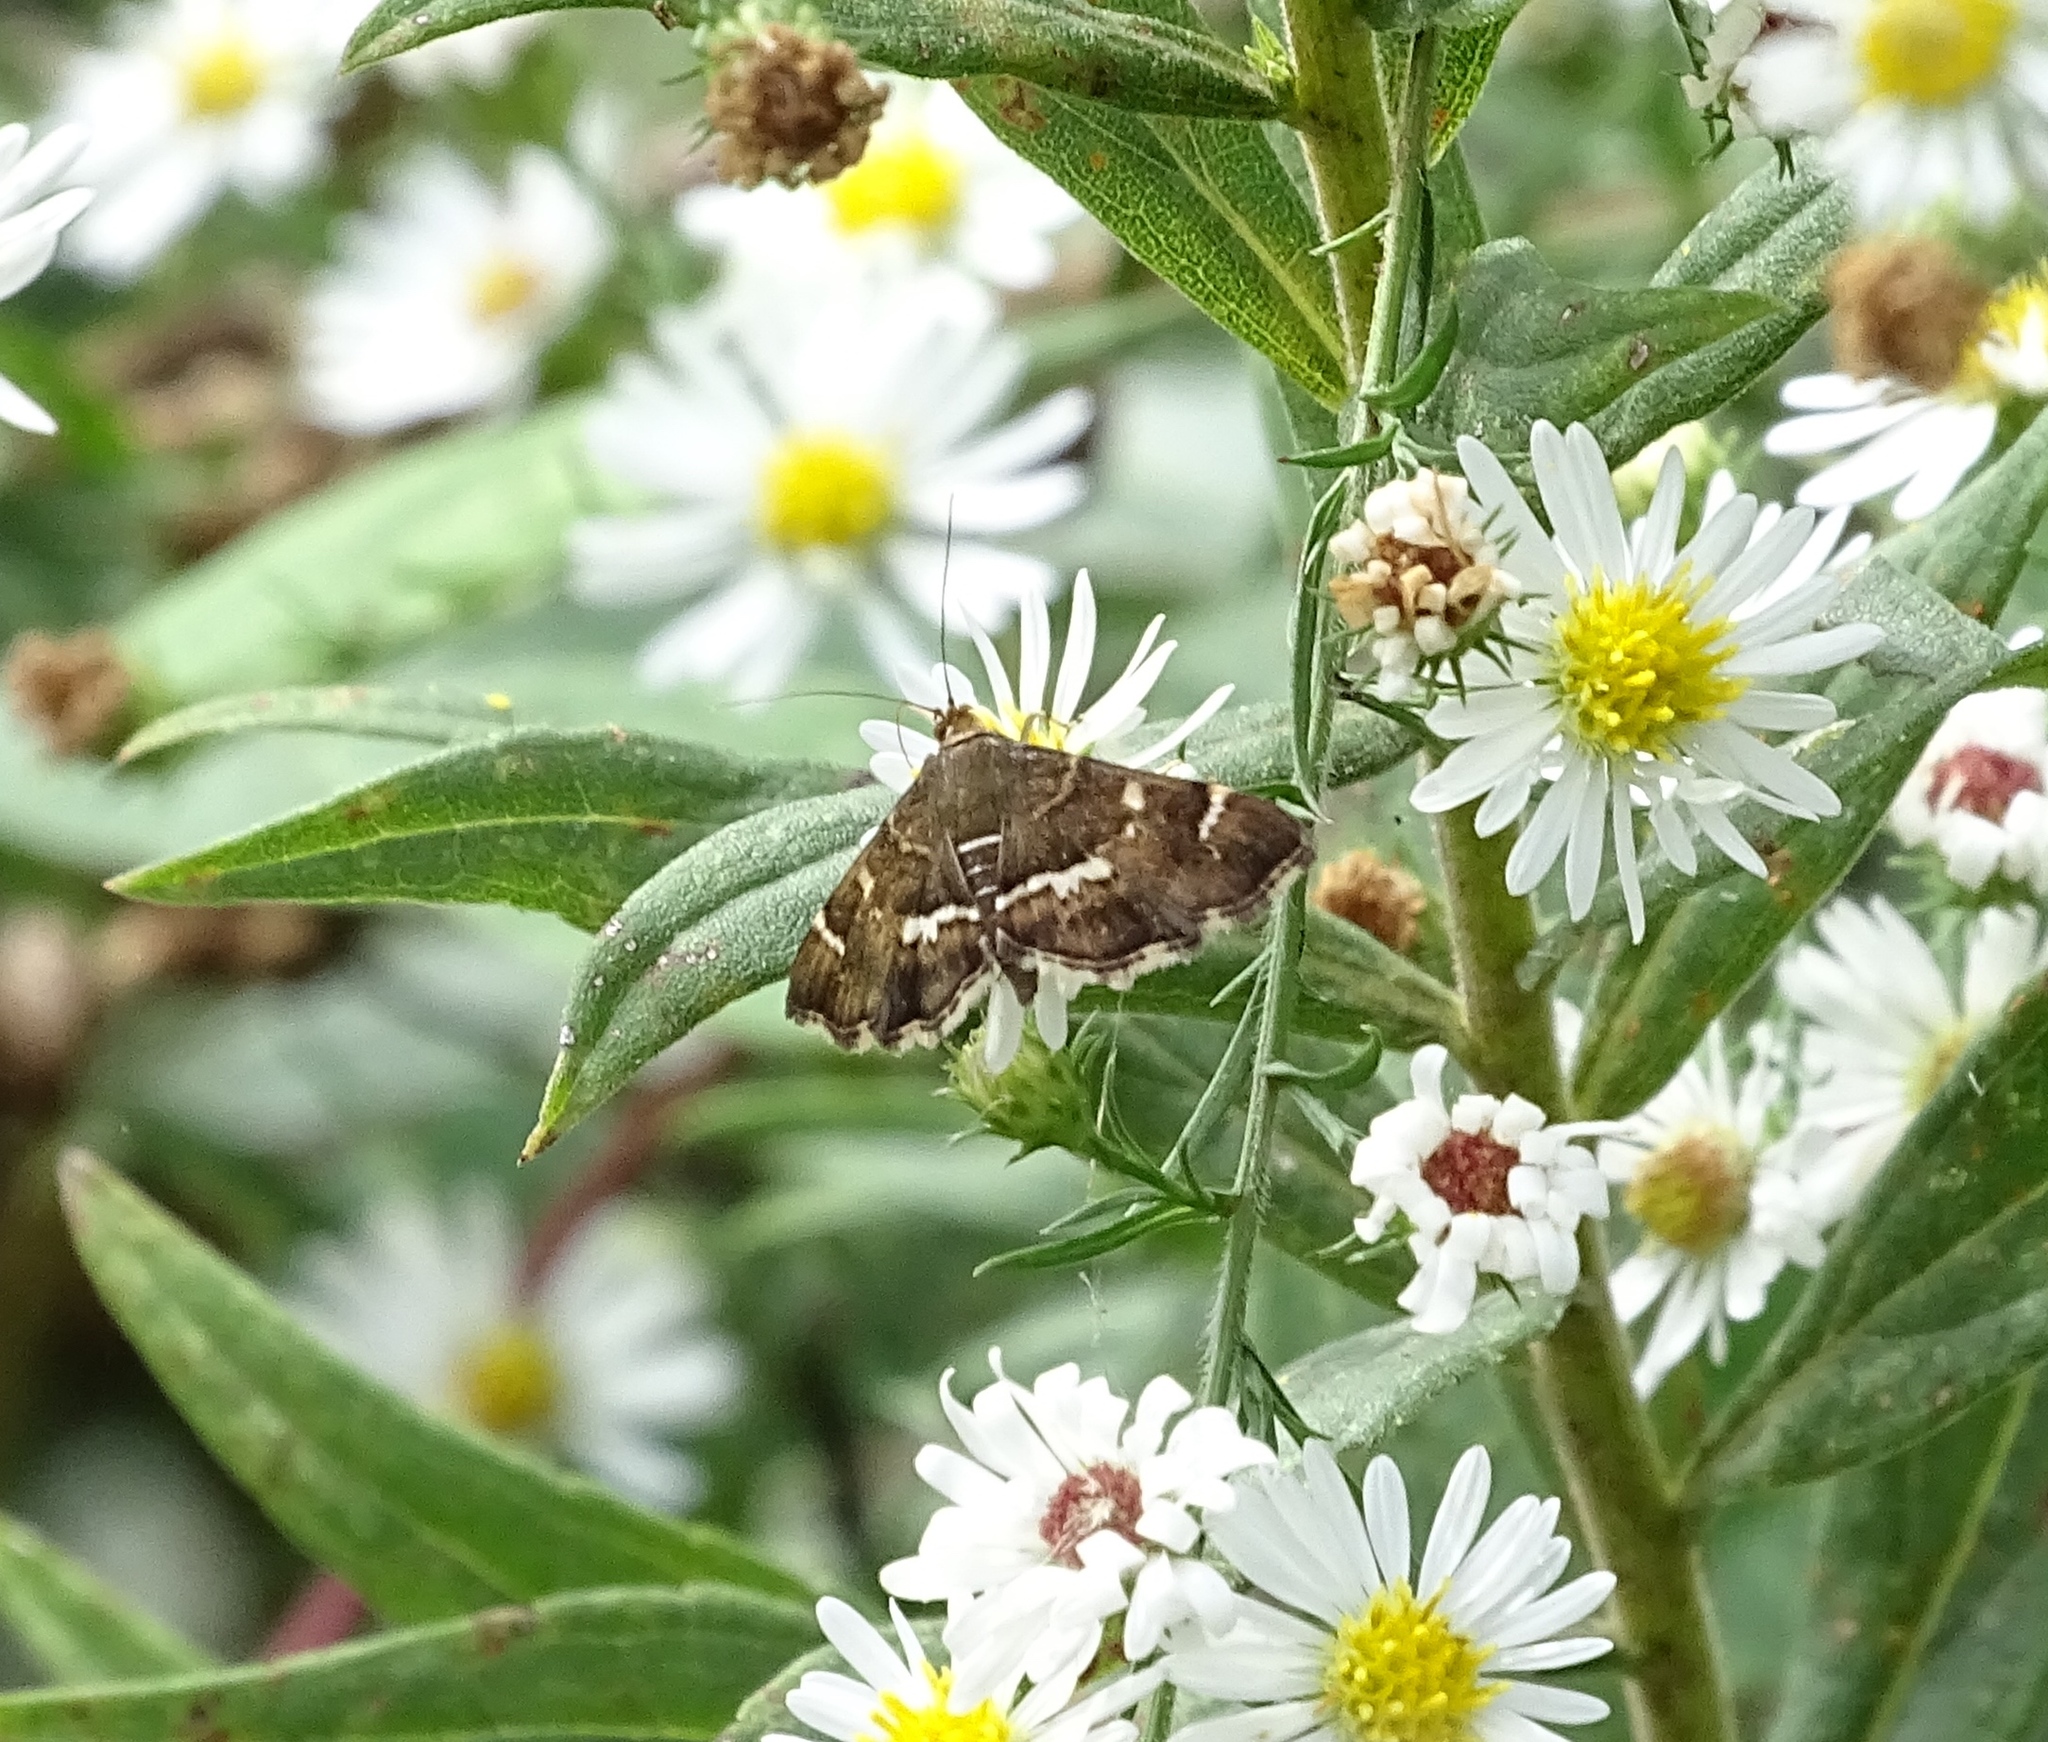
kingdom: Animalia
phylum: Arthropoda
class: Insecta
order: Lepidoptera
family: Crambidae
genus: Hymenia
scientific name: Hymenia perspectalis
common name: Spotted beet webworm
